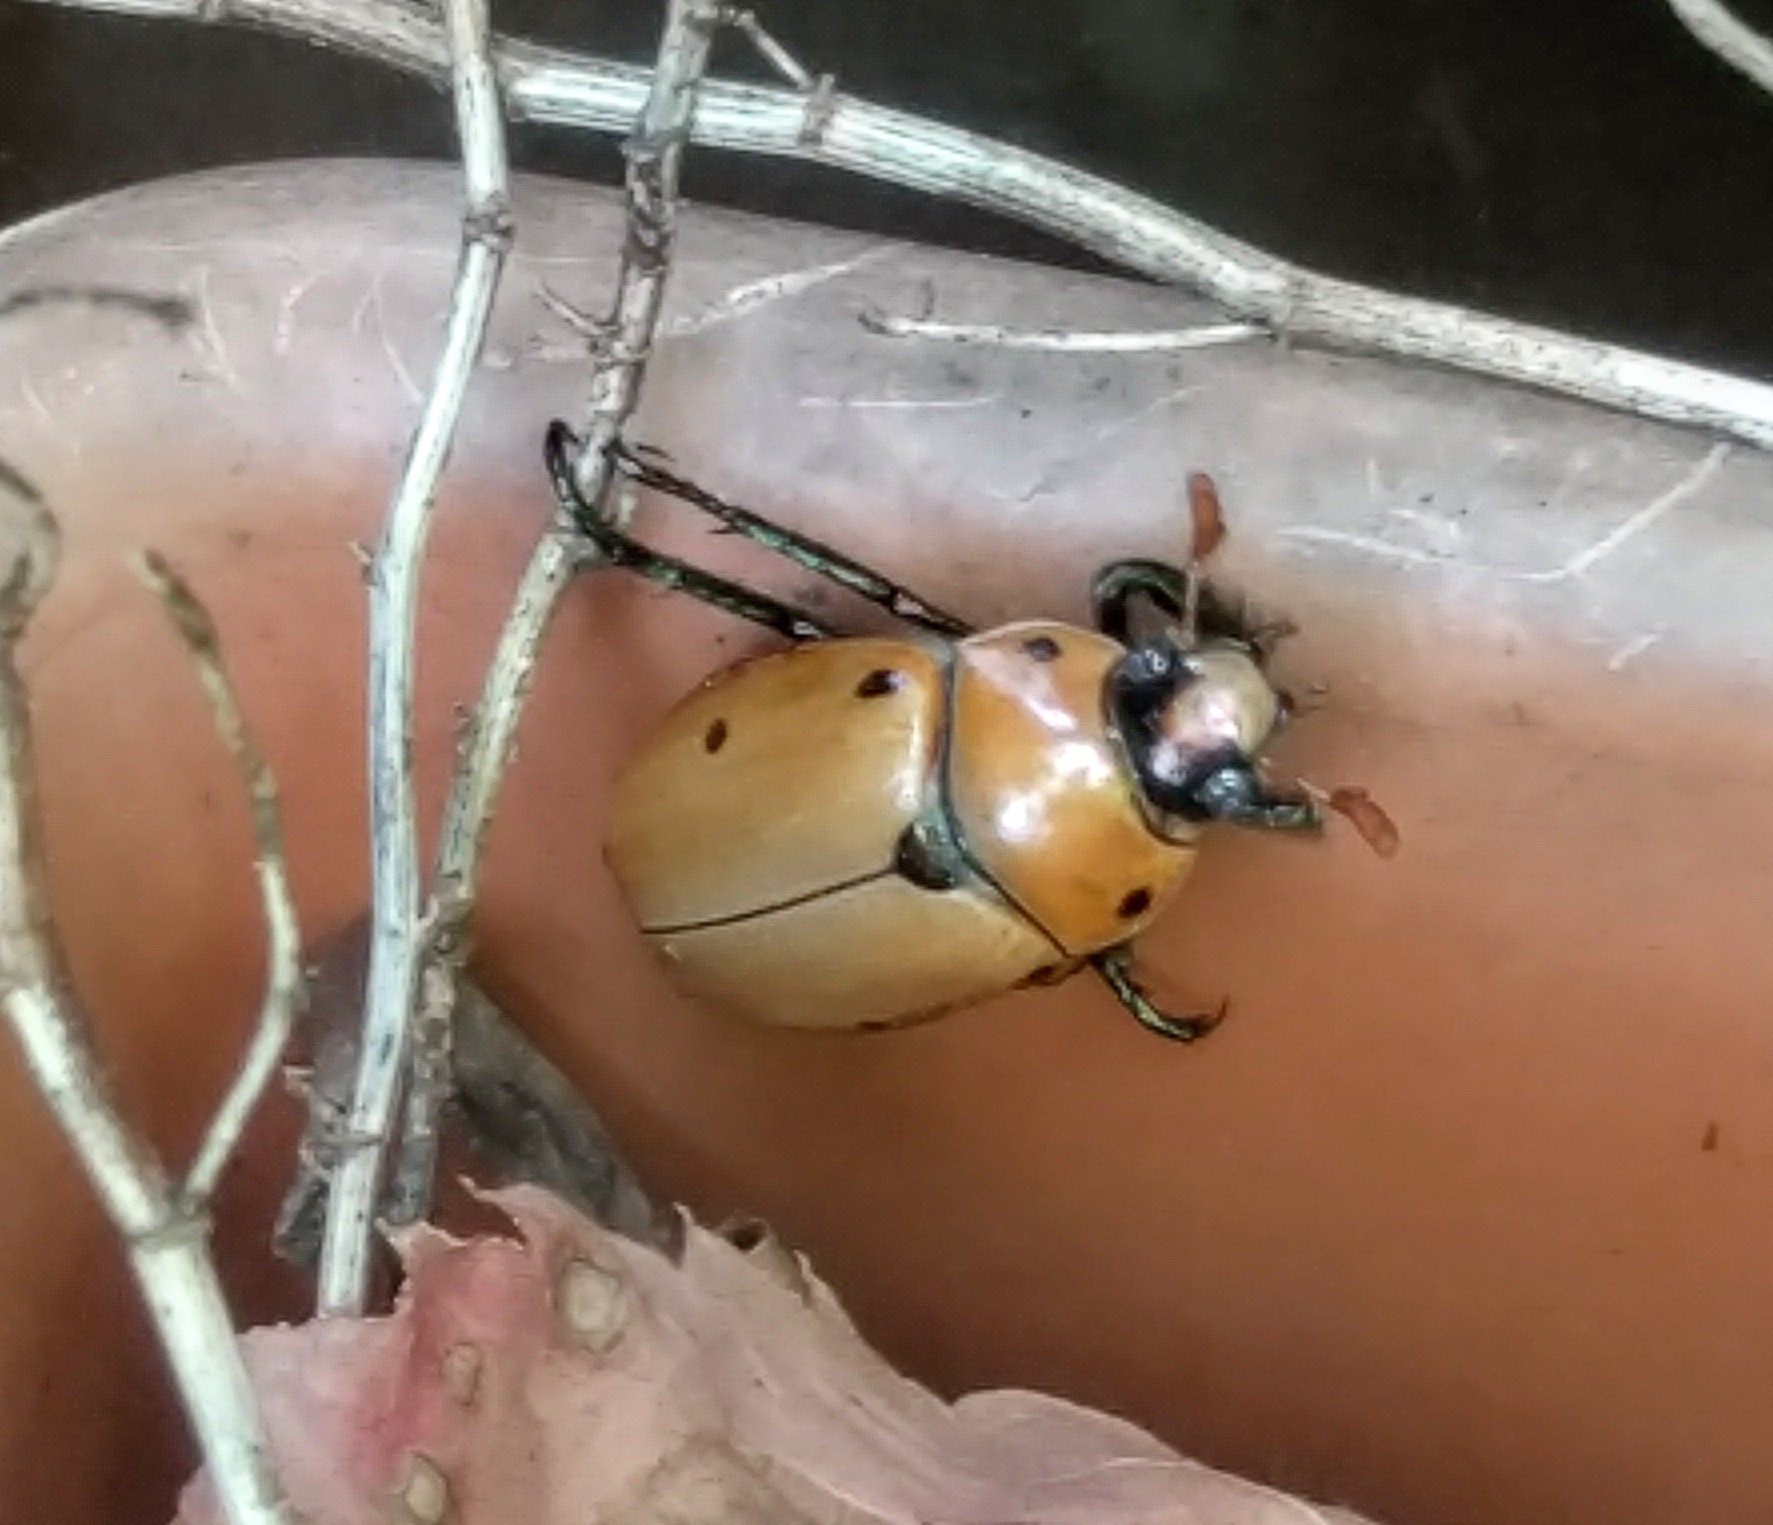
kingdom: Animalia
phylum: Arthropoda
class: Insecta
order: Coleoptera
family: Scarabaeidae
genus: Pelidnota
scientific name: Pelidnota punctata
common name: Grapevine beetle
